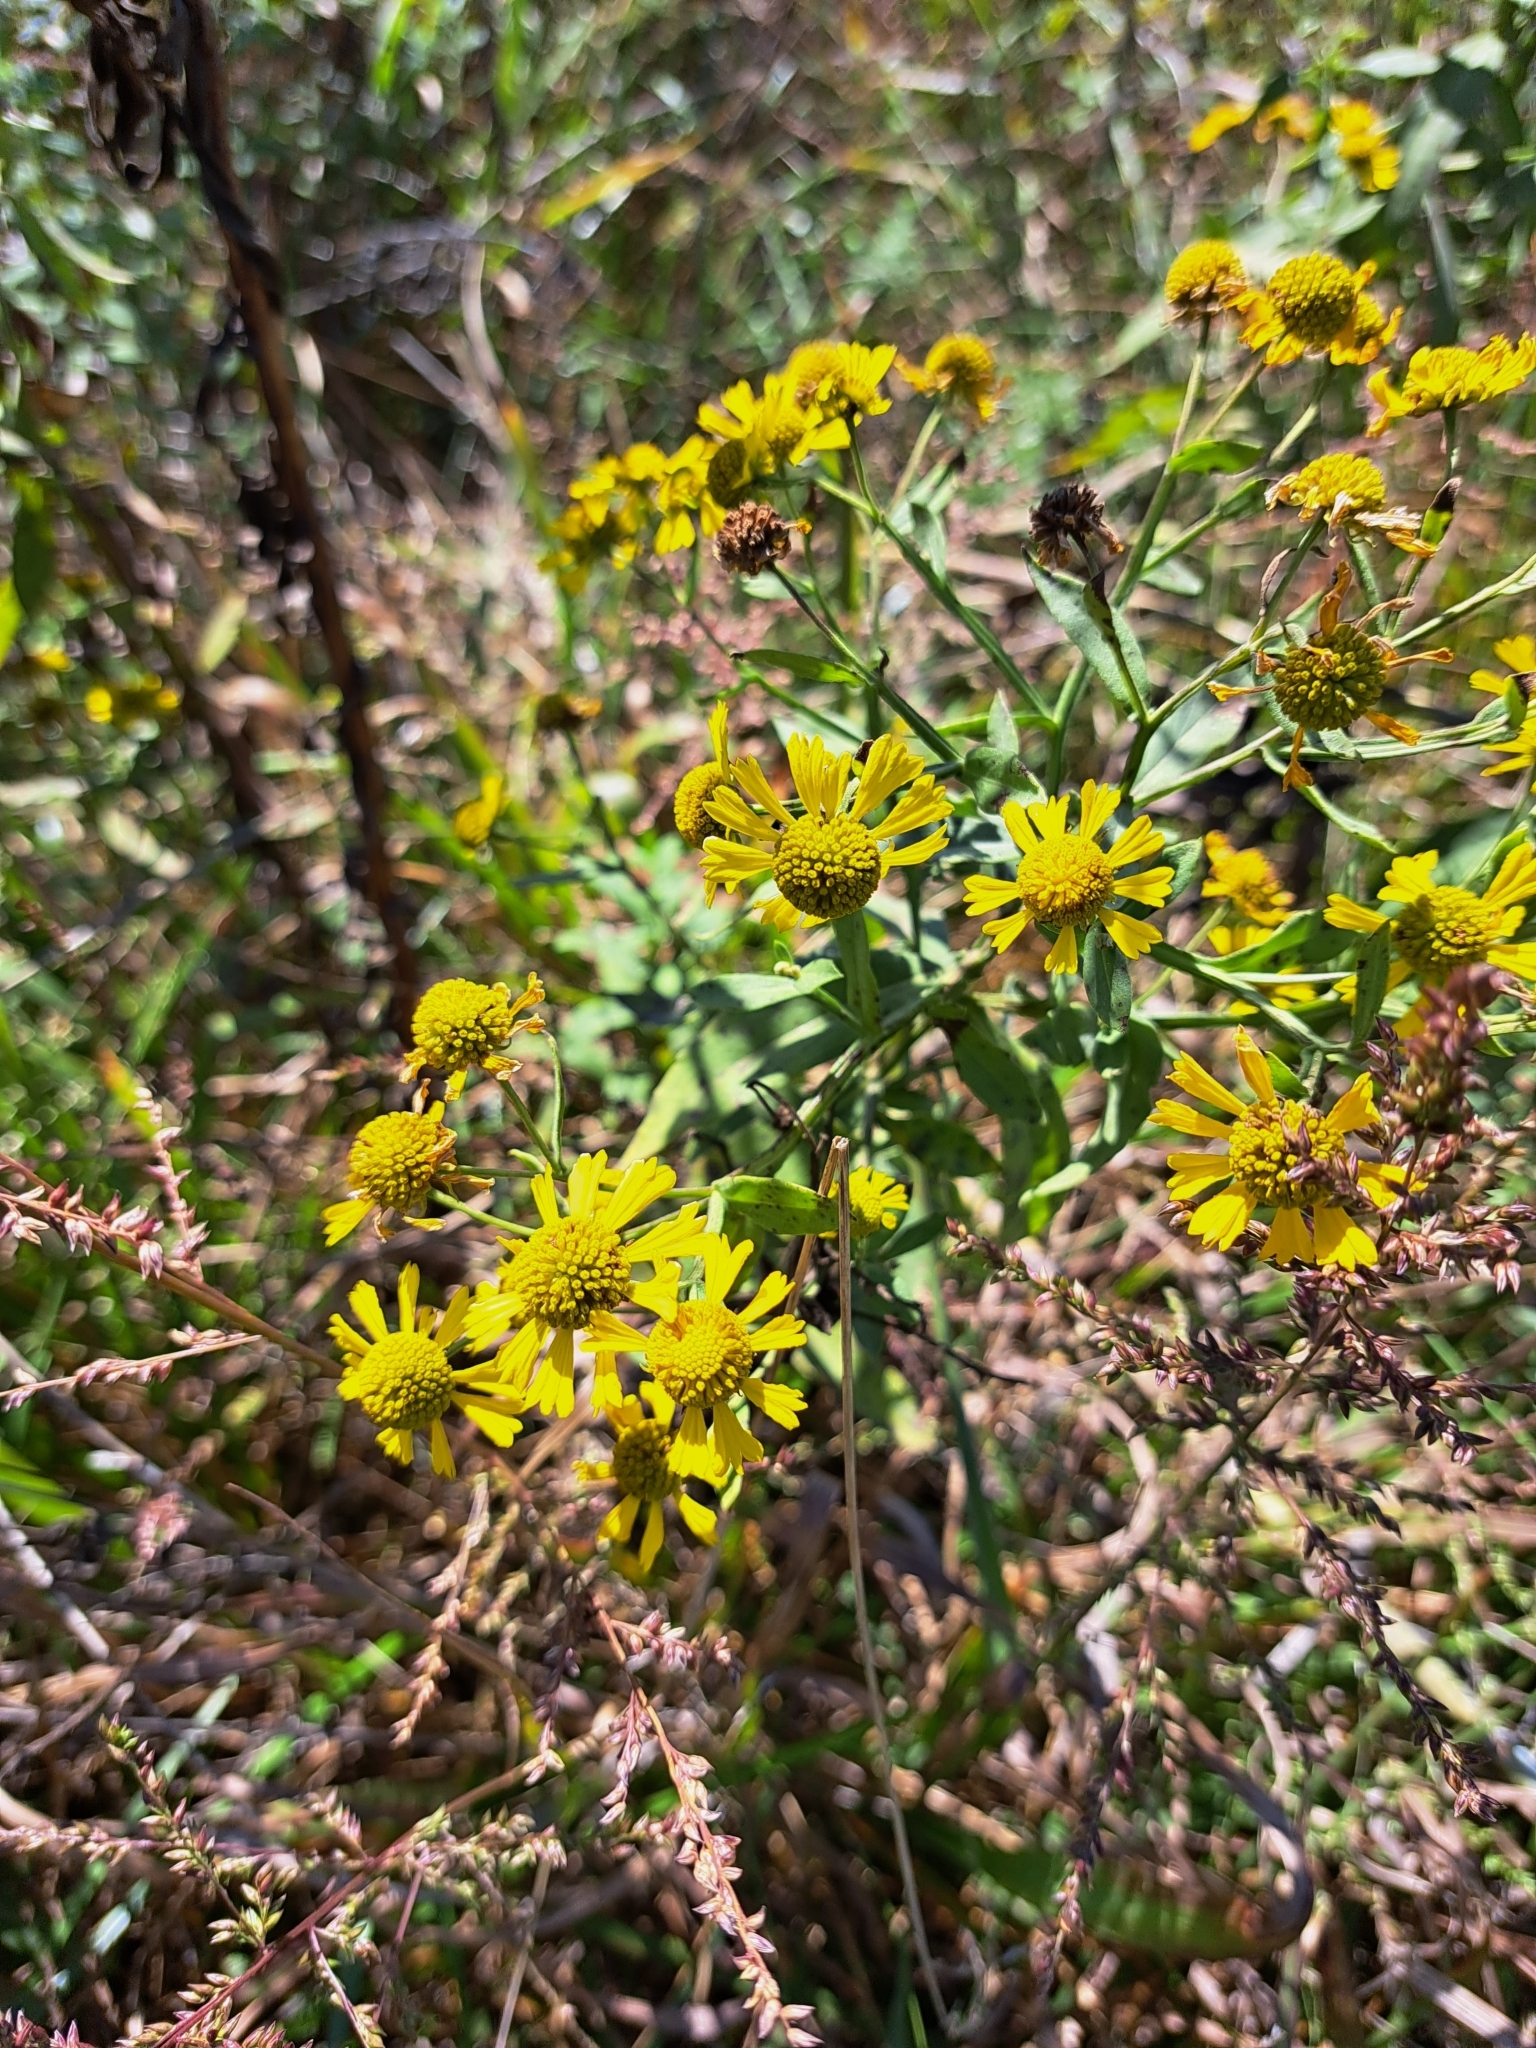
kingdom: Plantae
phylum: Tracheophyta
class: Magnoliopsida
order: Asterales
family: Asteraceae
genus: Helenium
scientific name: Helenium autumnale
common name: Sneezeweed
